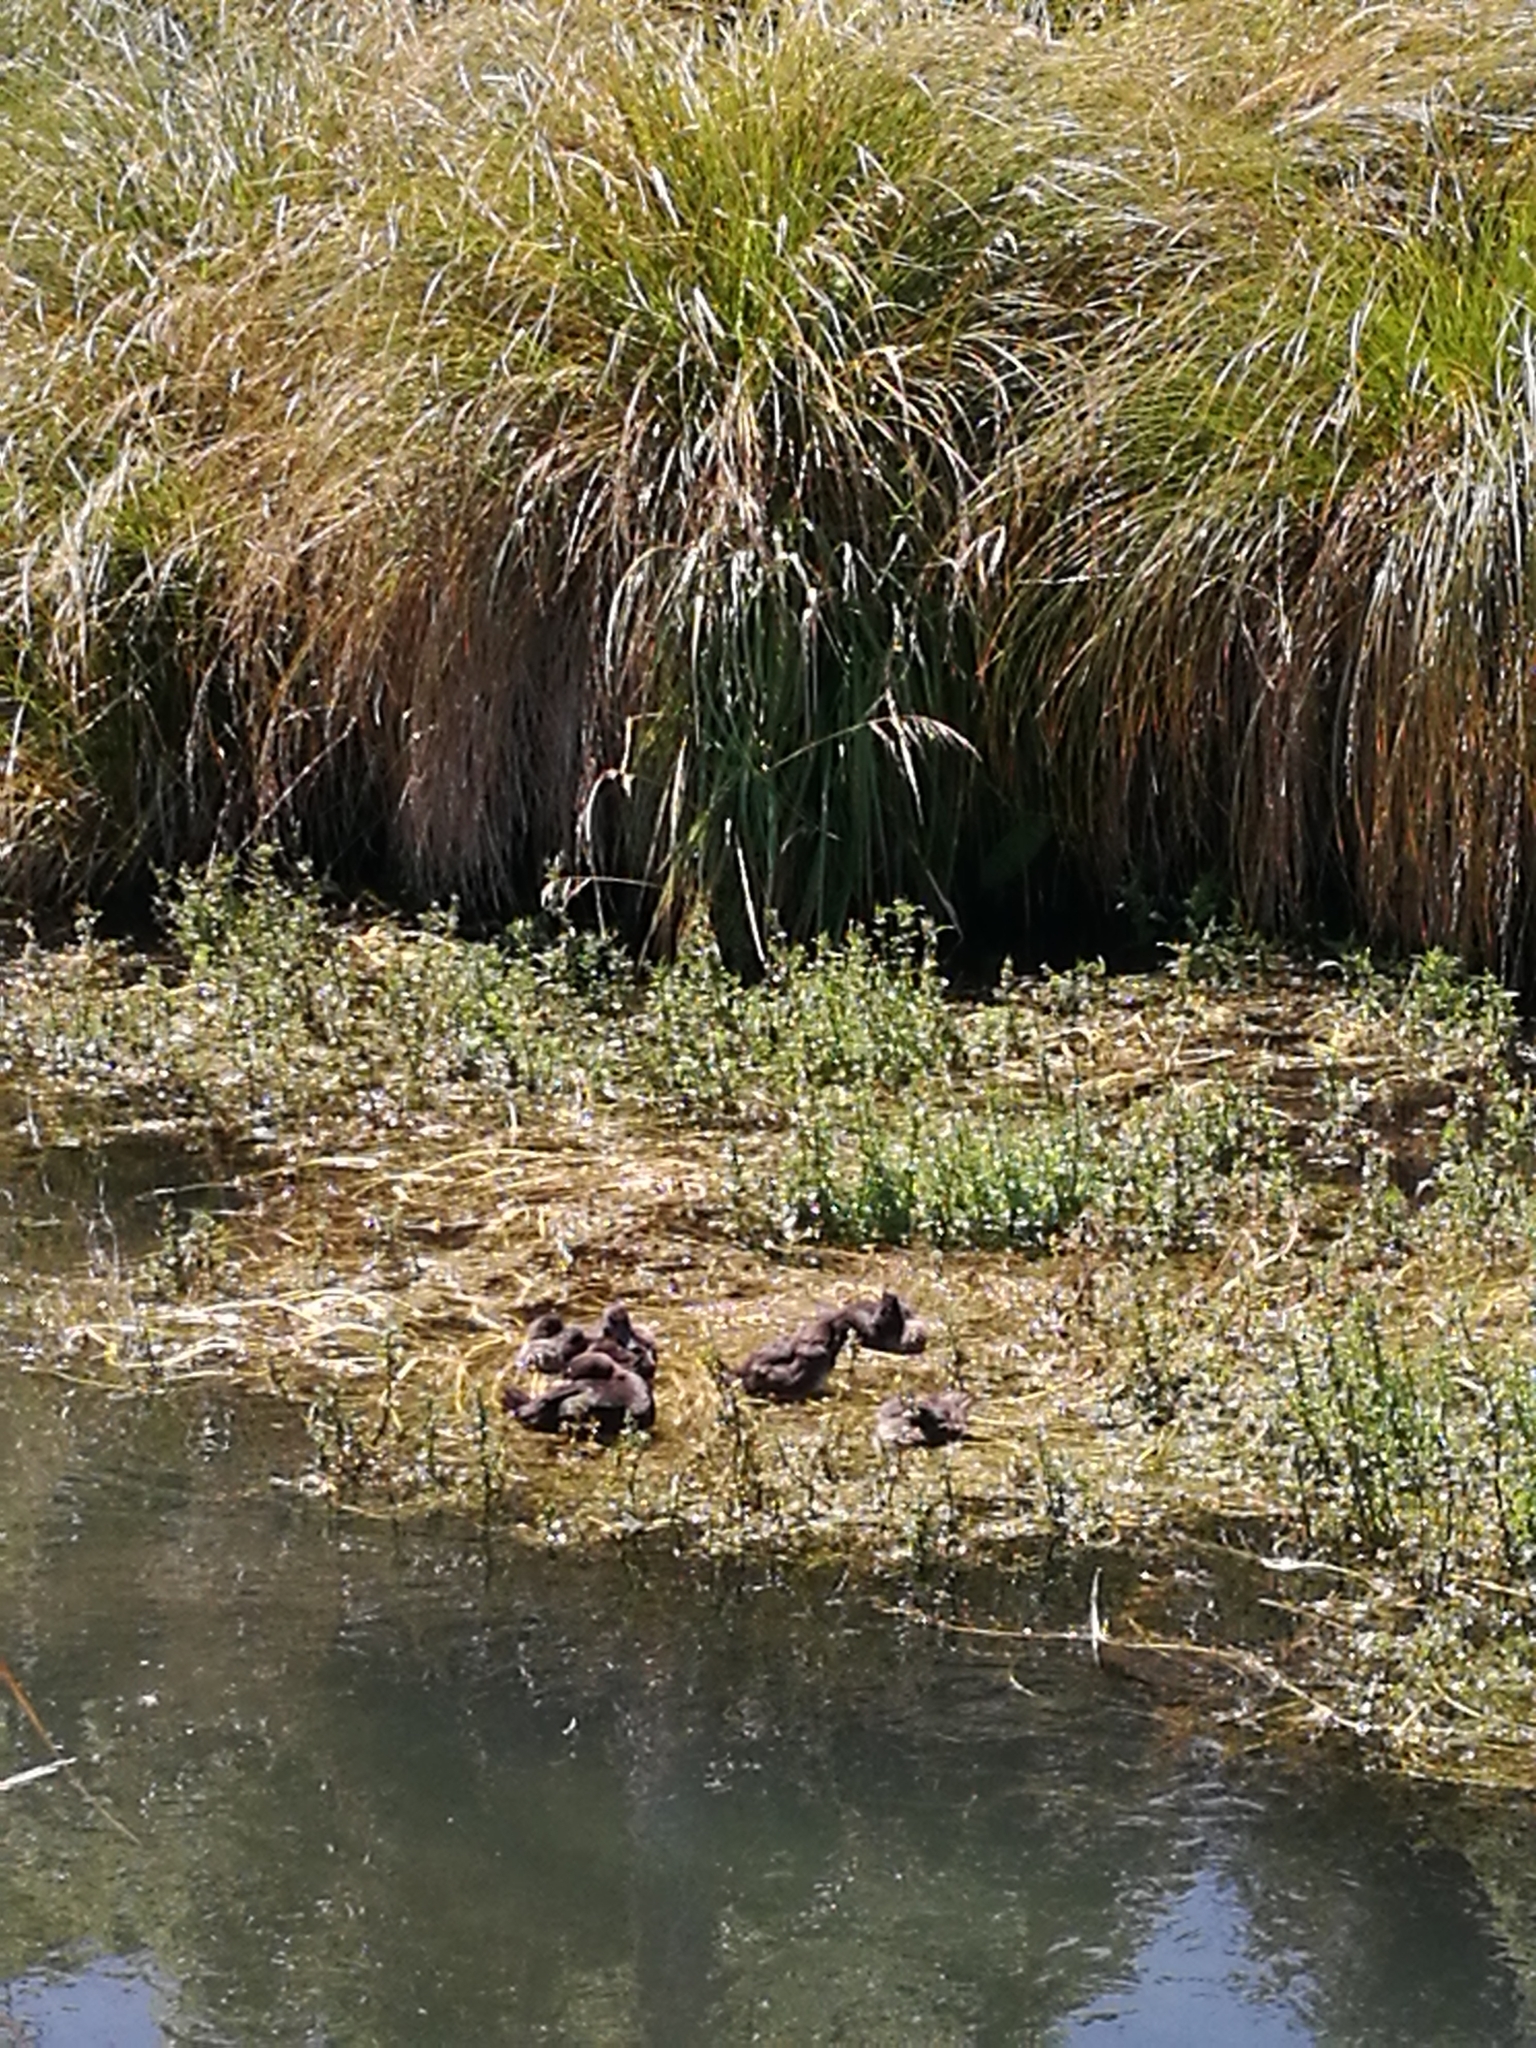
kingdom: Animalia
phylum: Chordata
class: Aves
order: Anseriformes
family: Anatidae
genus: Aythya
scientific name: Aythya novaeseelandiae
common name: New zealand scaup
